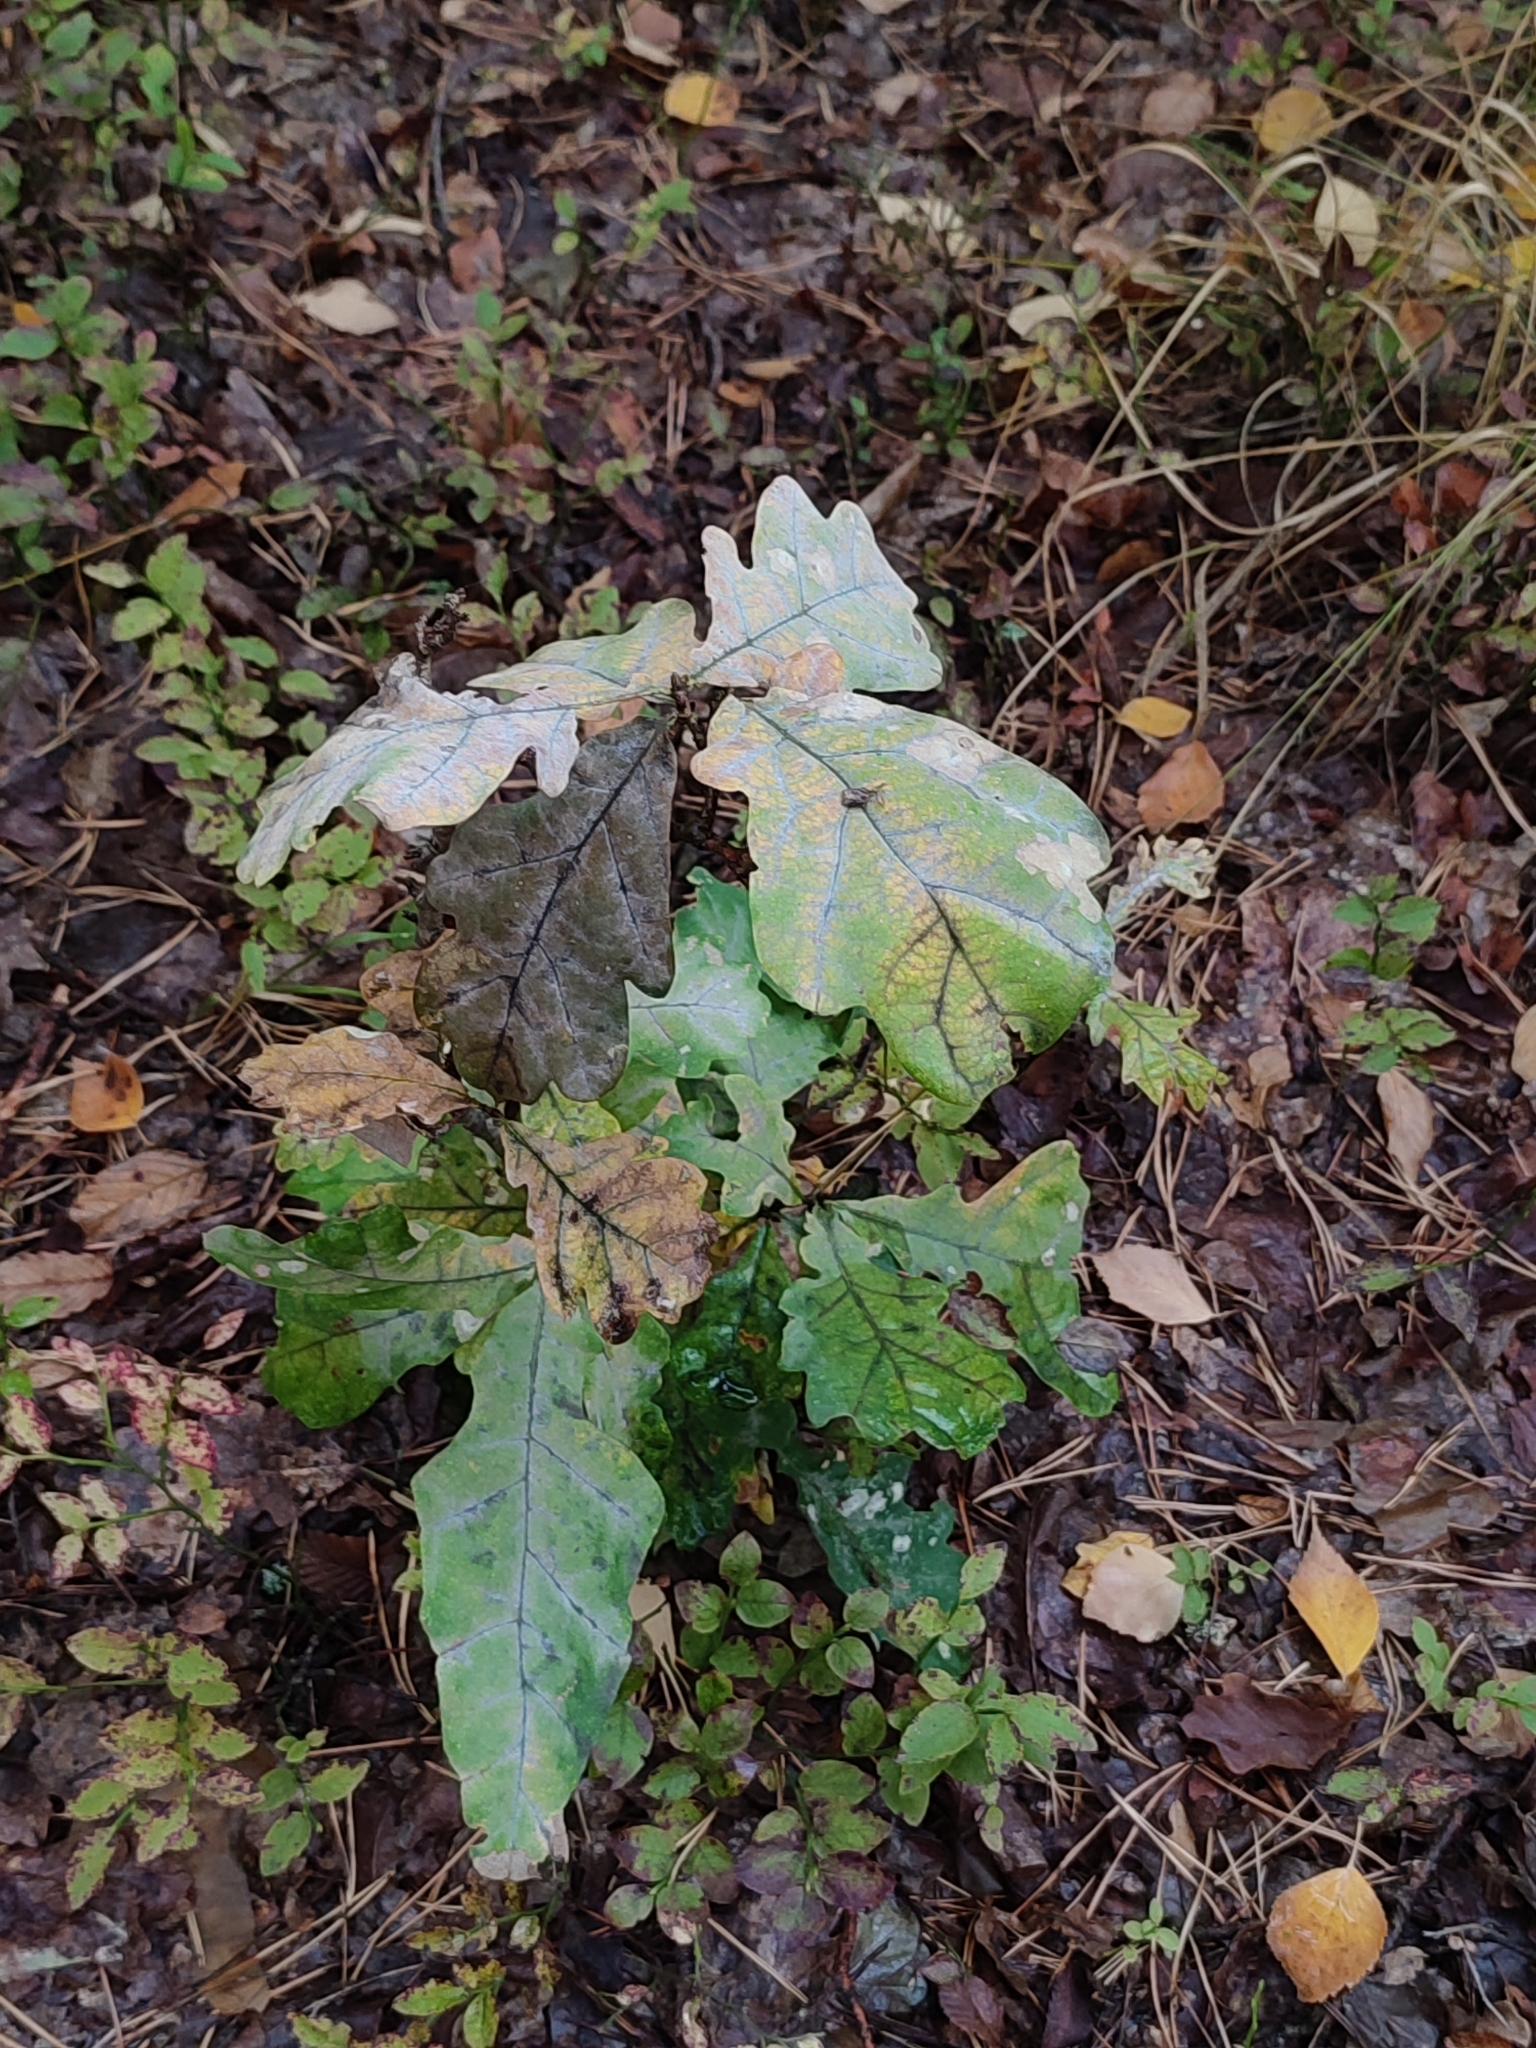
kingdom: Plantae
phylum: Tracheophyta
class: Magnoliopsida
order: Fagales
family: Fagaceae
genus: Quercus
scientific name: Quercus robur
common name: Pedunculate oak
